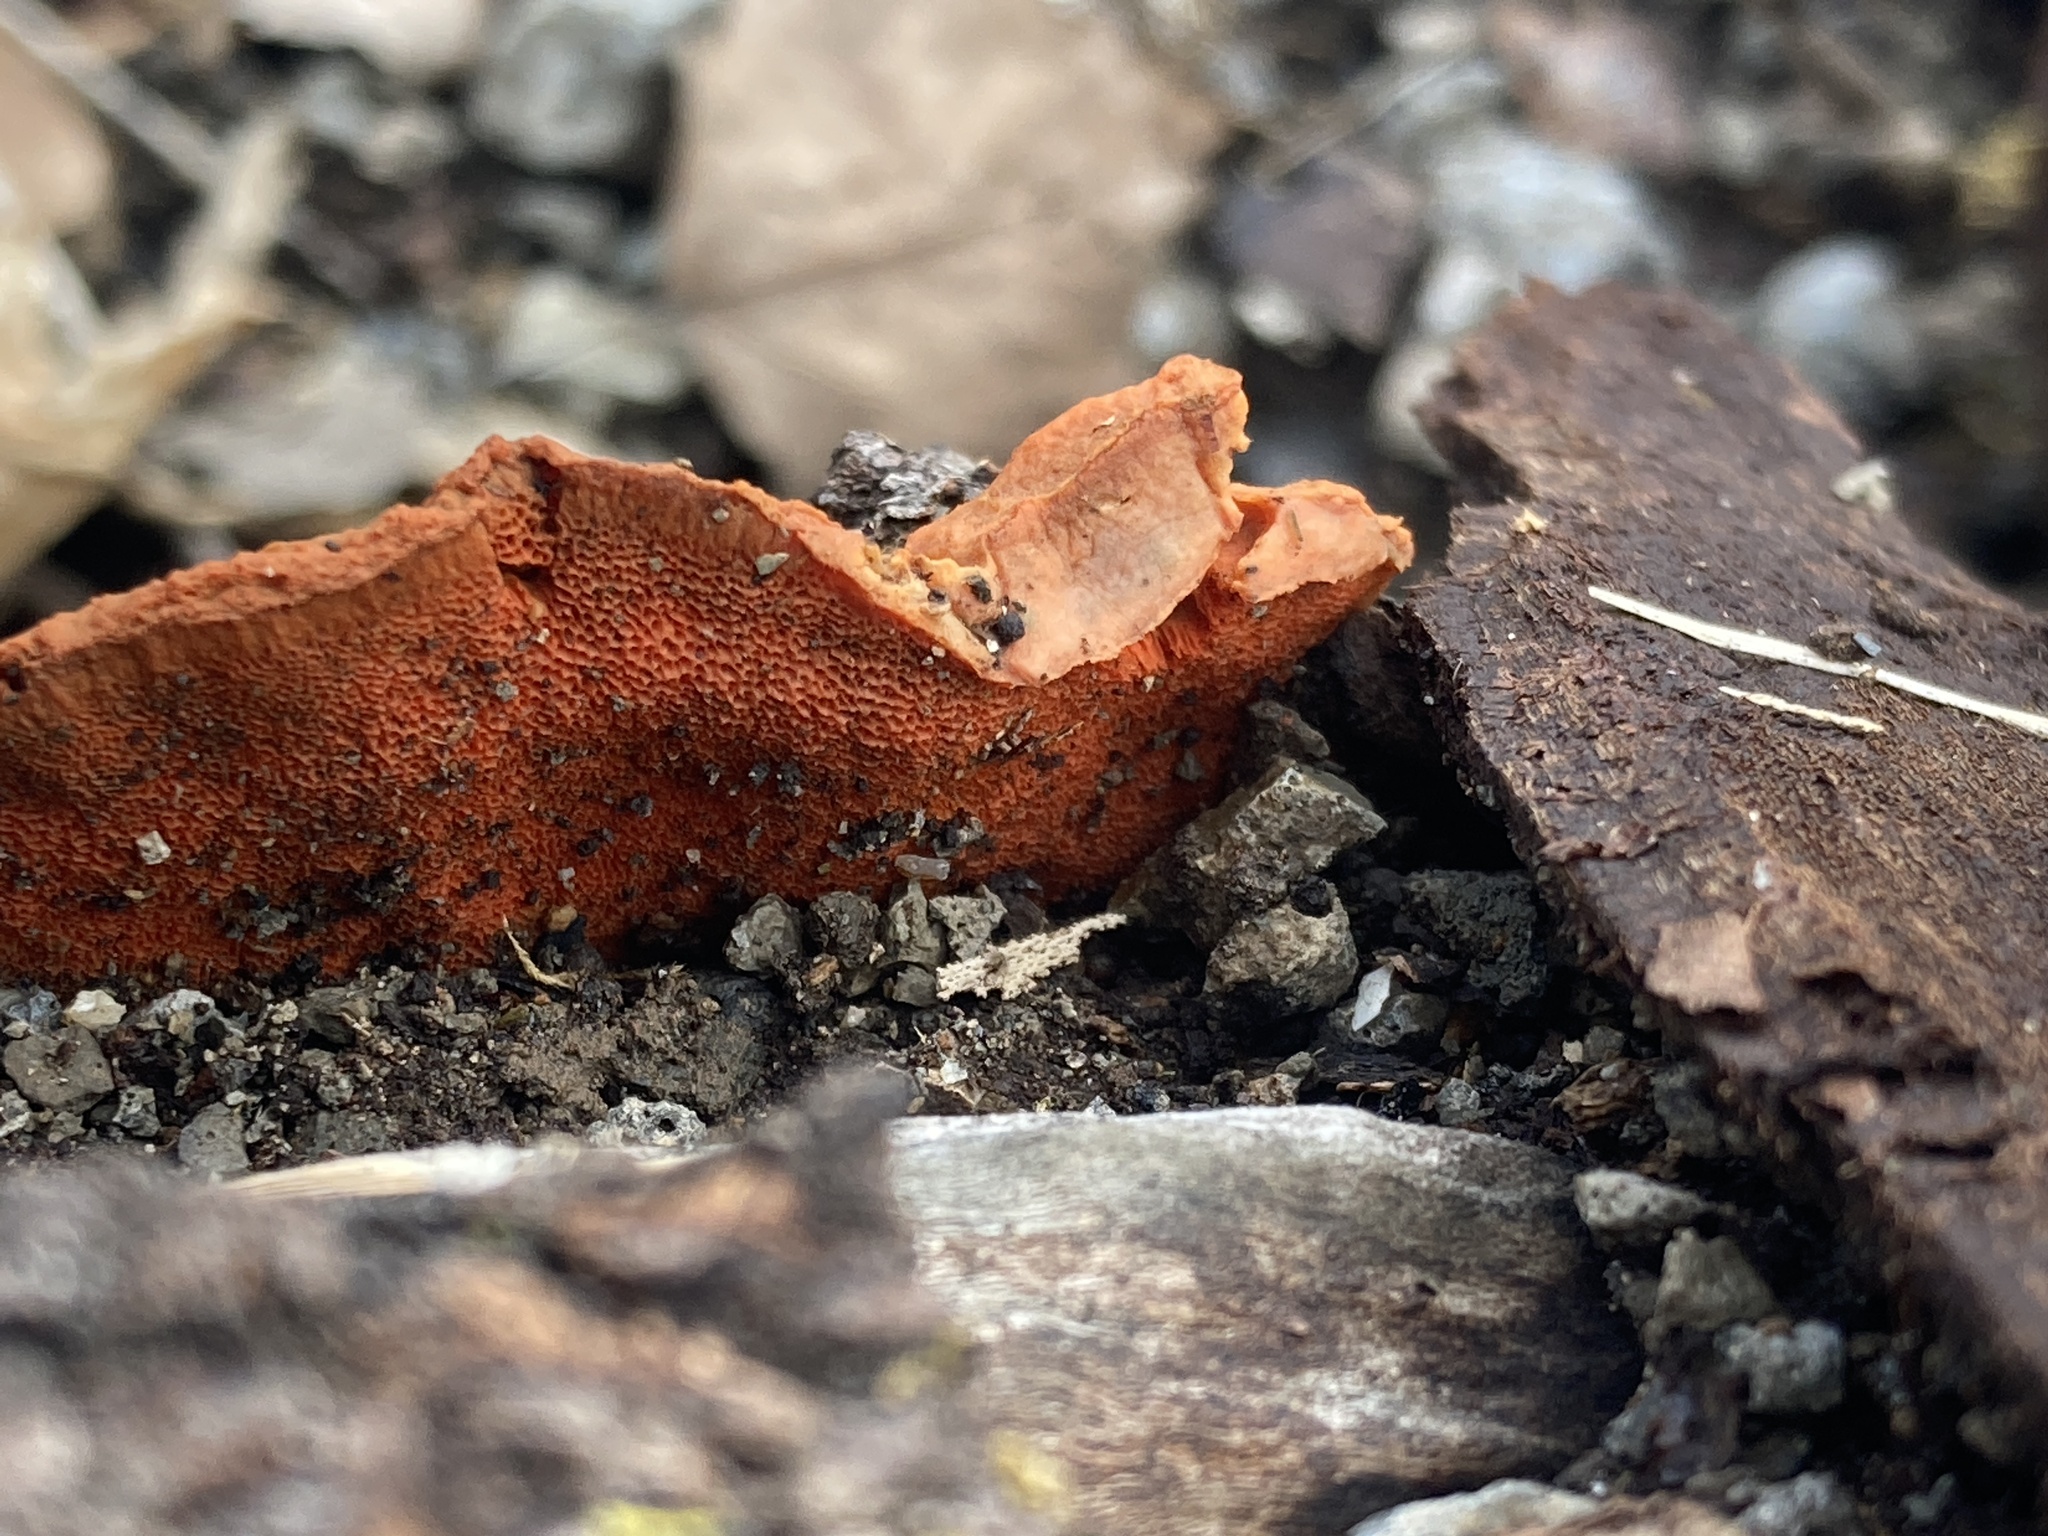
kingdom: Fungi
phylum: Basidiomycota
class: Agaricomycetes
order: Polyporales
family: Polyporaceae
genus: Trametes
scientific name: Trametes cinnabarina
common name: Northern cinnabar polypore
